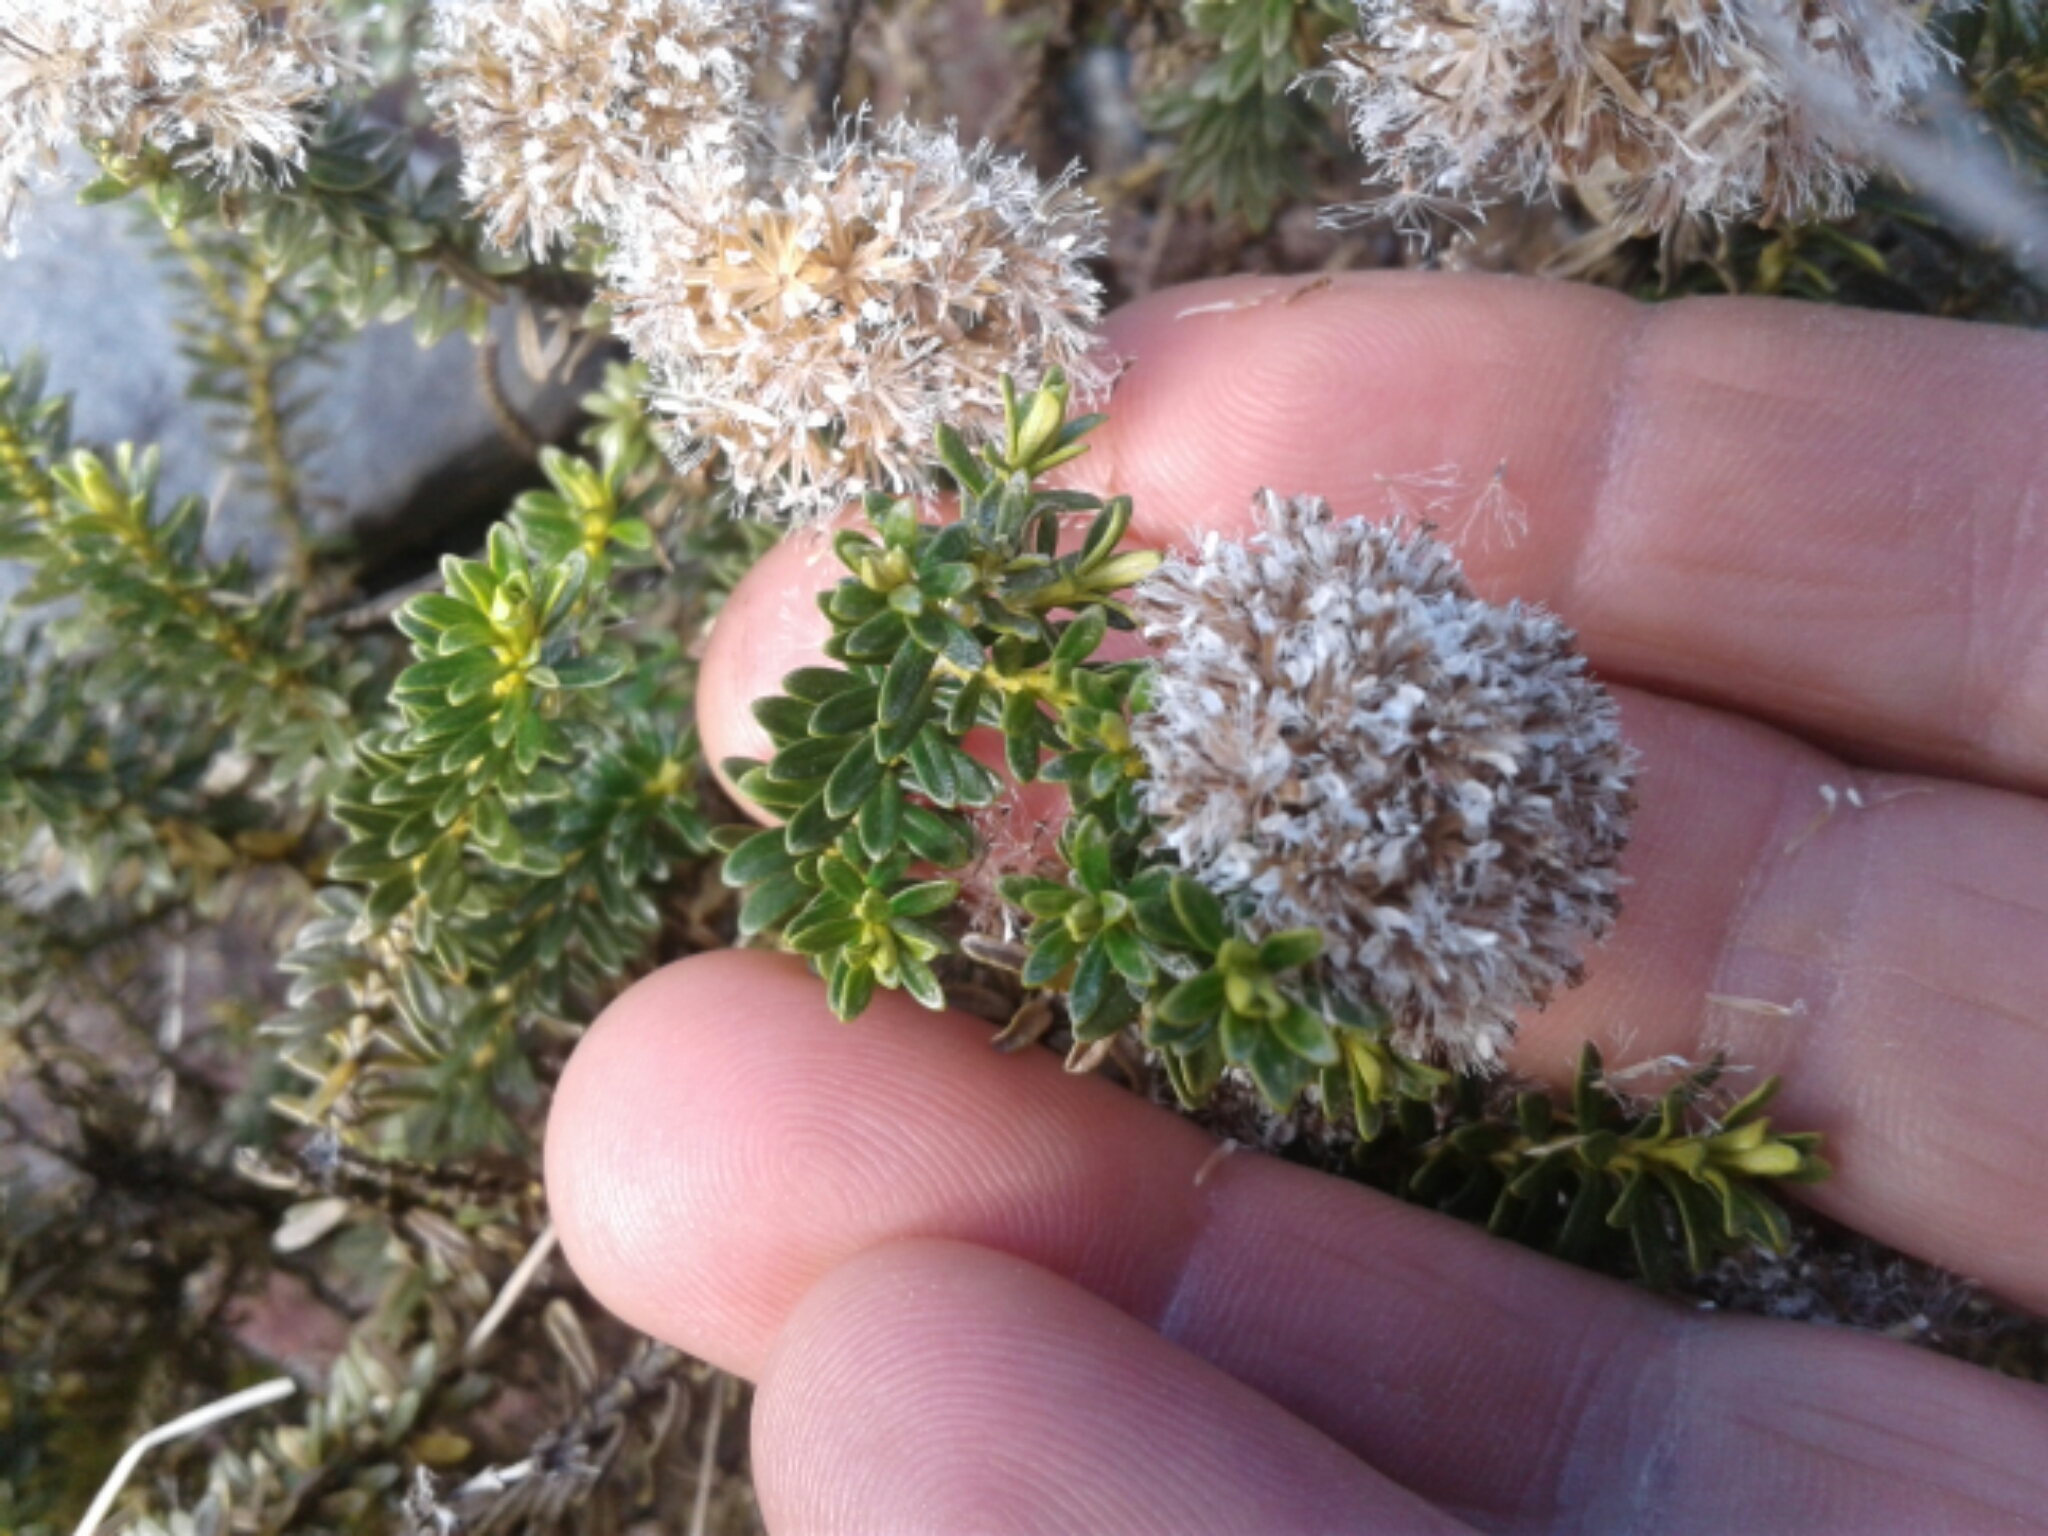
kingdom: Plantae
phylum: Tracheophyta
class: Magnoliopsida
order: Asterales
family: Asteraceae
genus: Ozothamnus
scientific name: Ozothamnus leptophyllus
